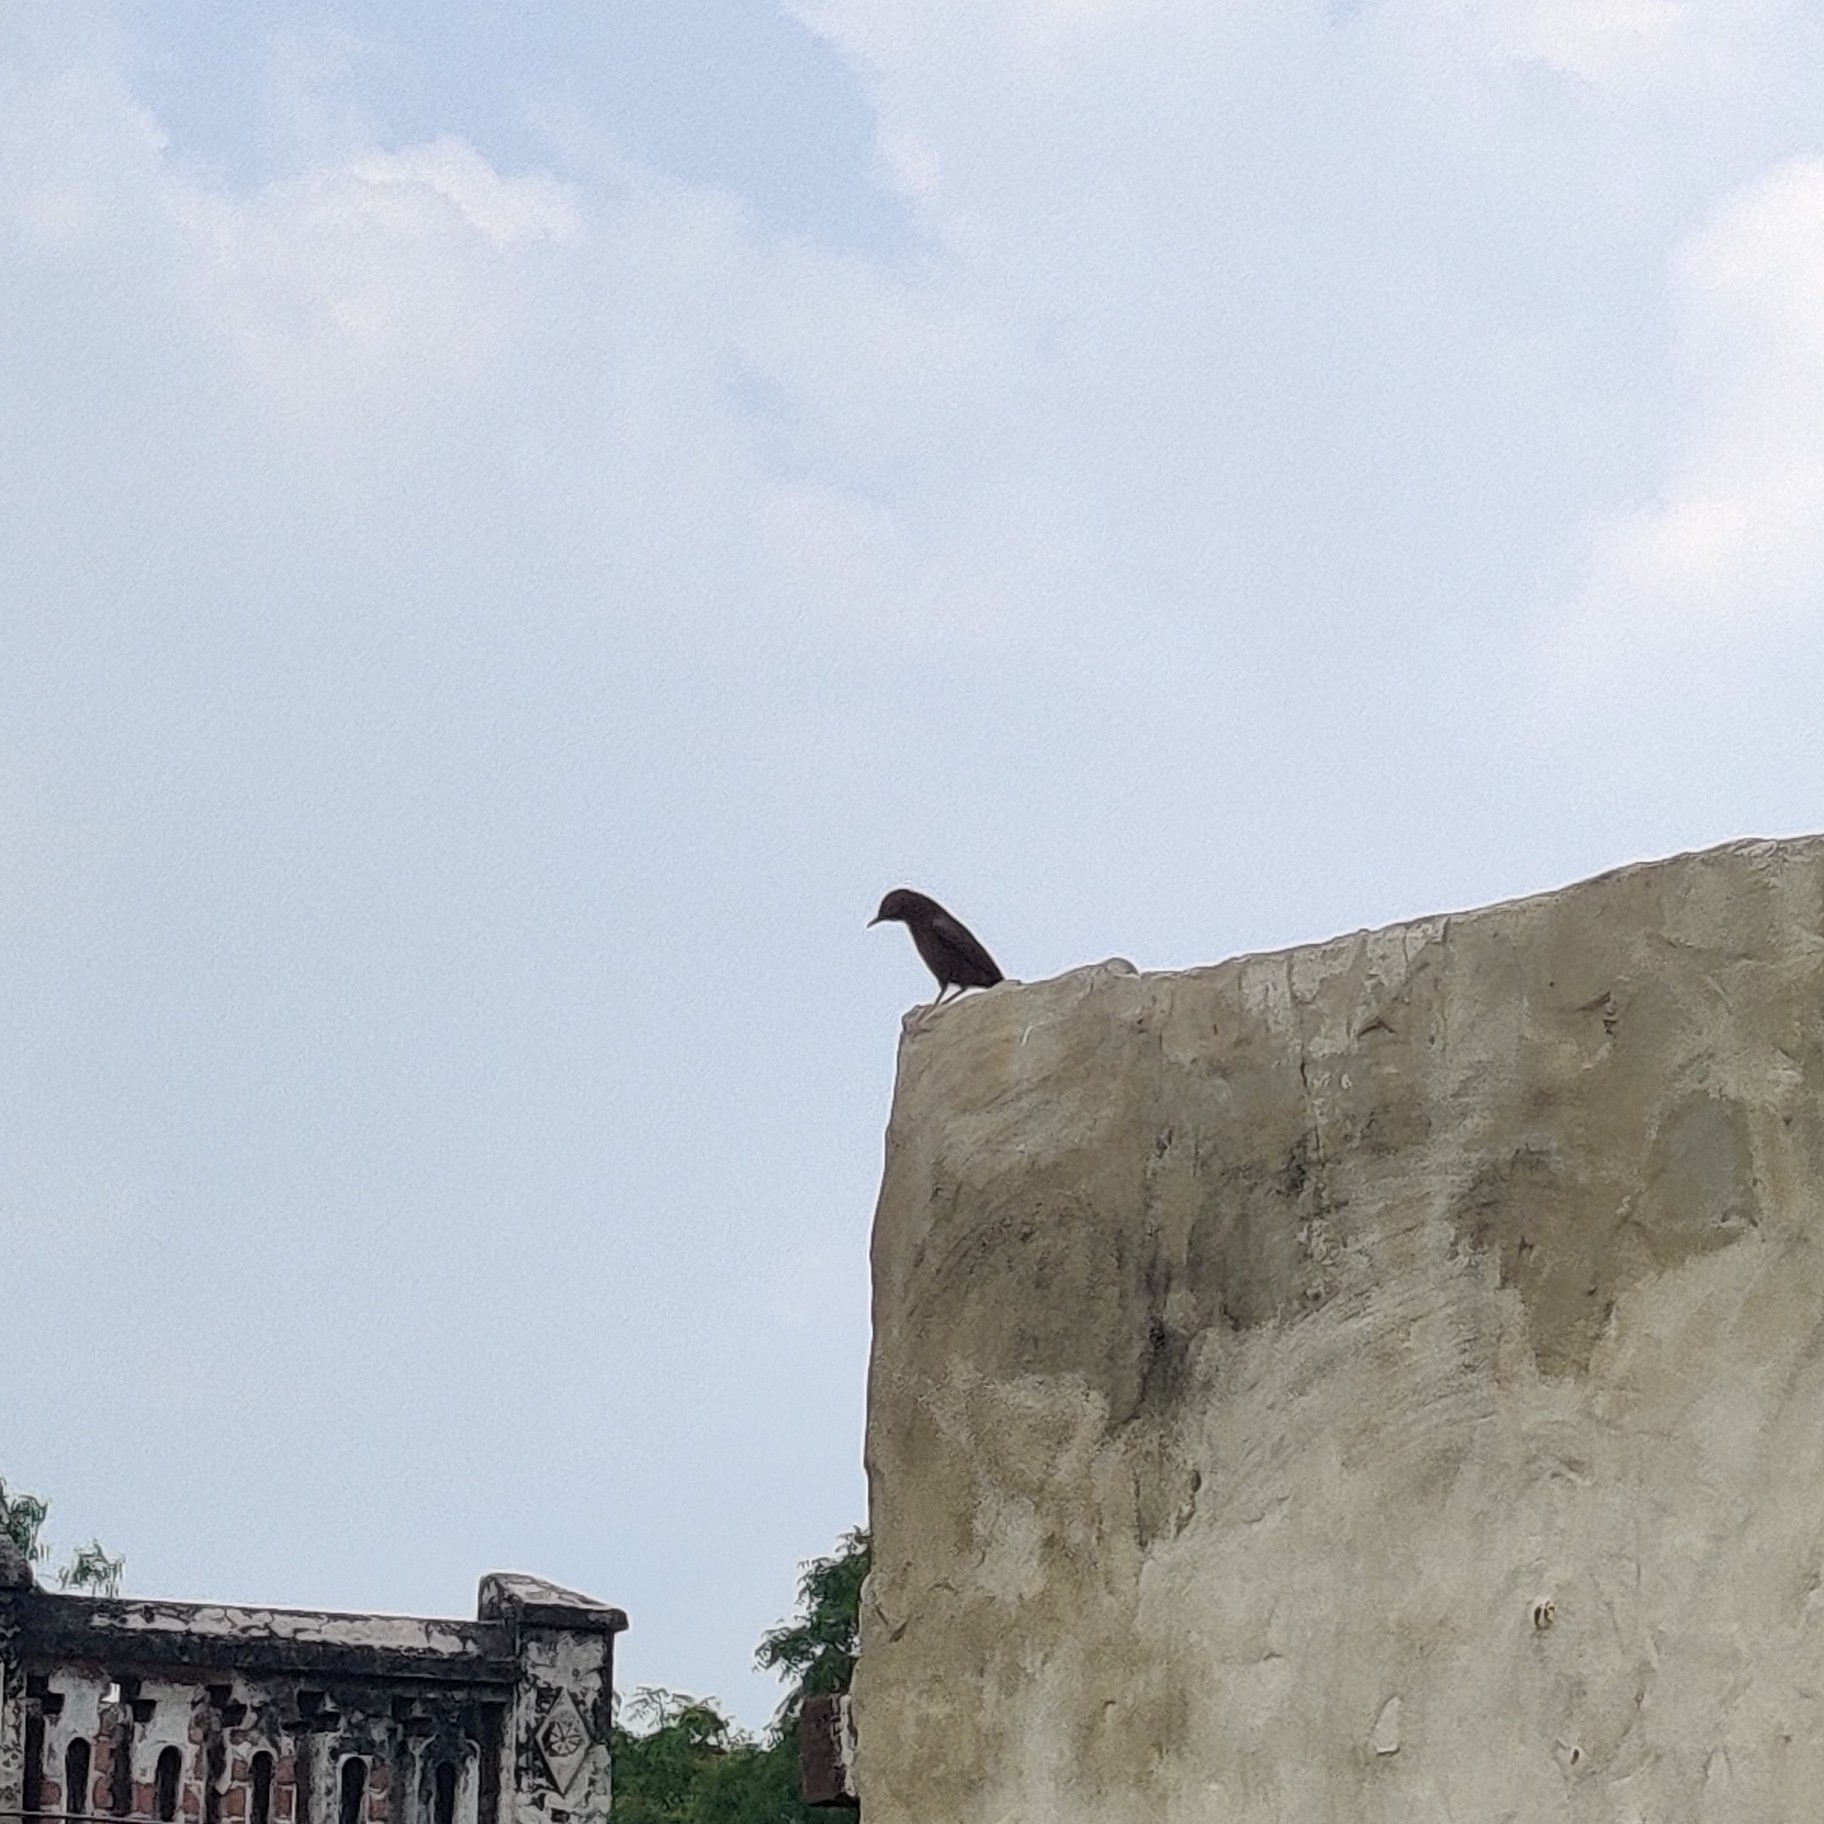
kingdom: Animalia
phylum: Chordata
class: Aves
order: Passeriformes
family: Muscicapidae
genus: Oenanthe
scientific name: Oenanthe fusca
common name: Brown rock chat
